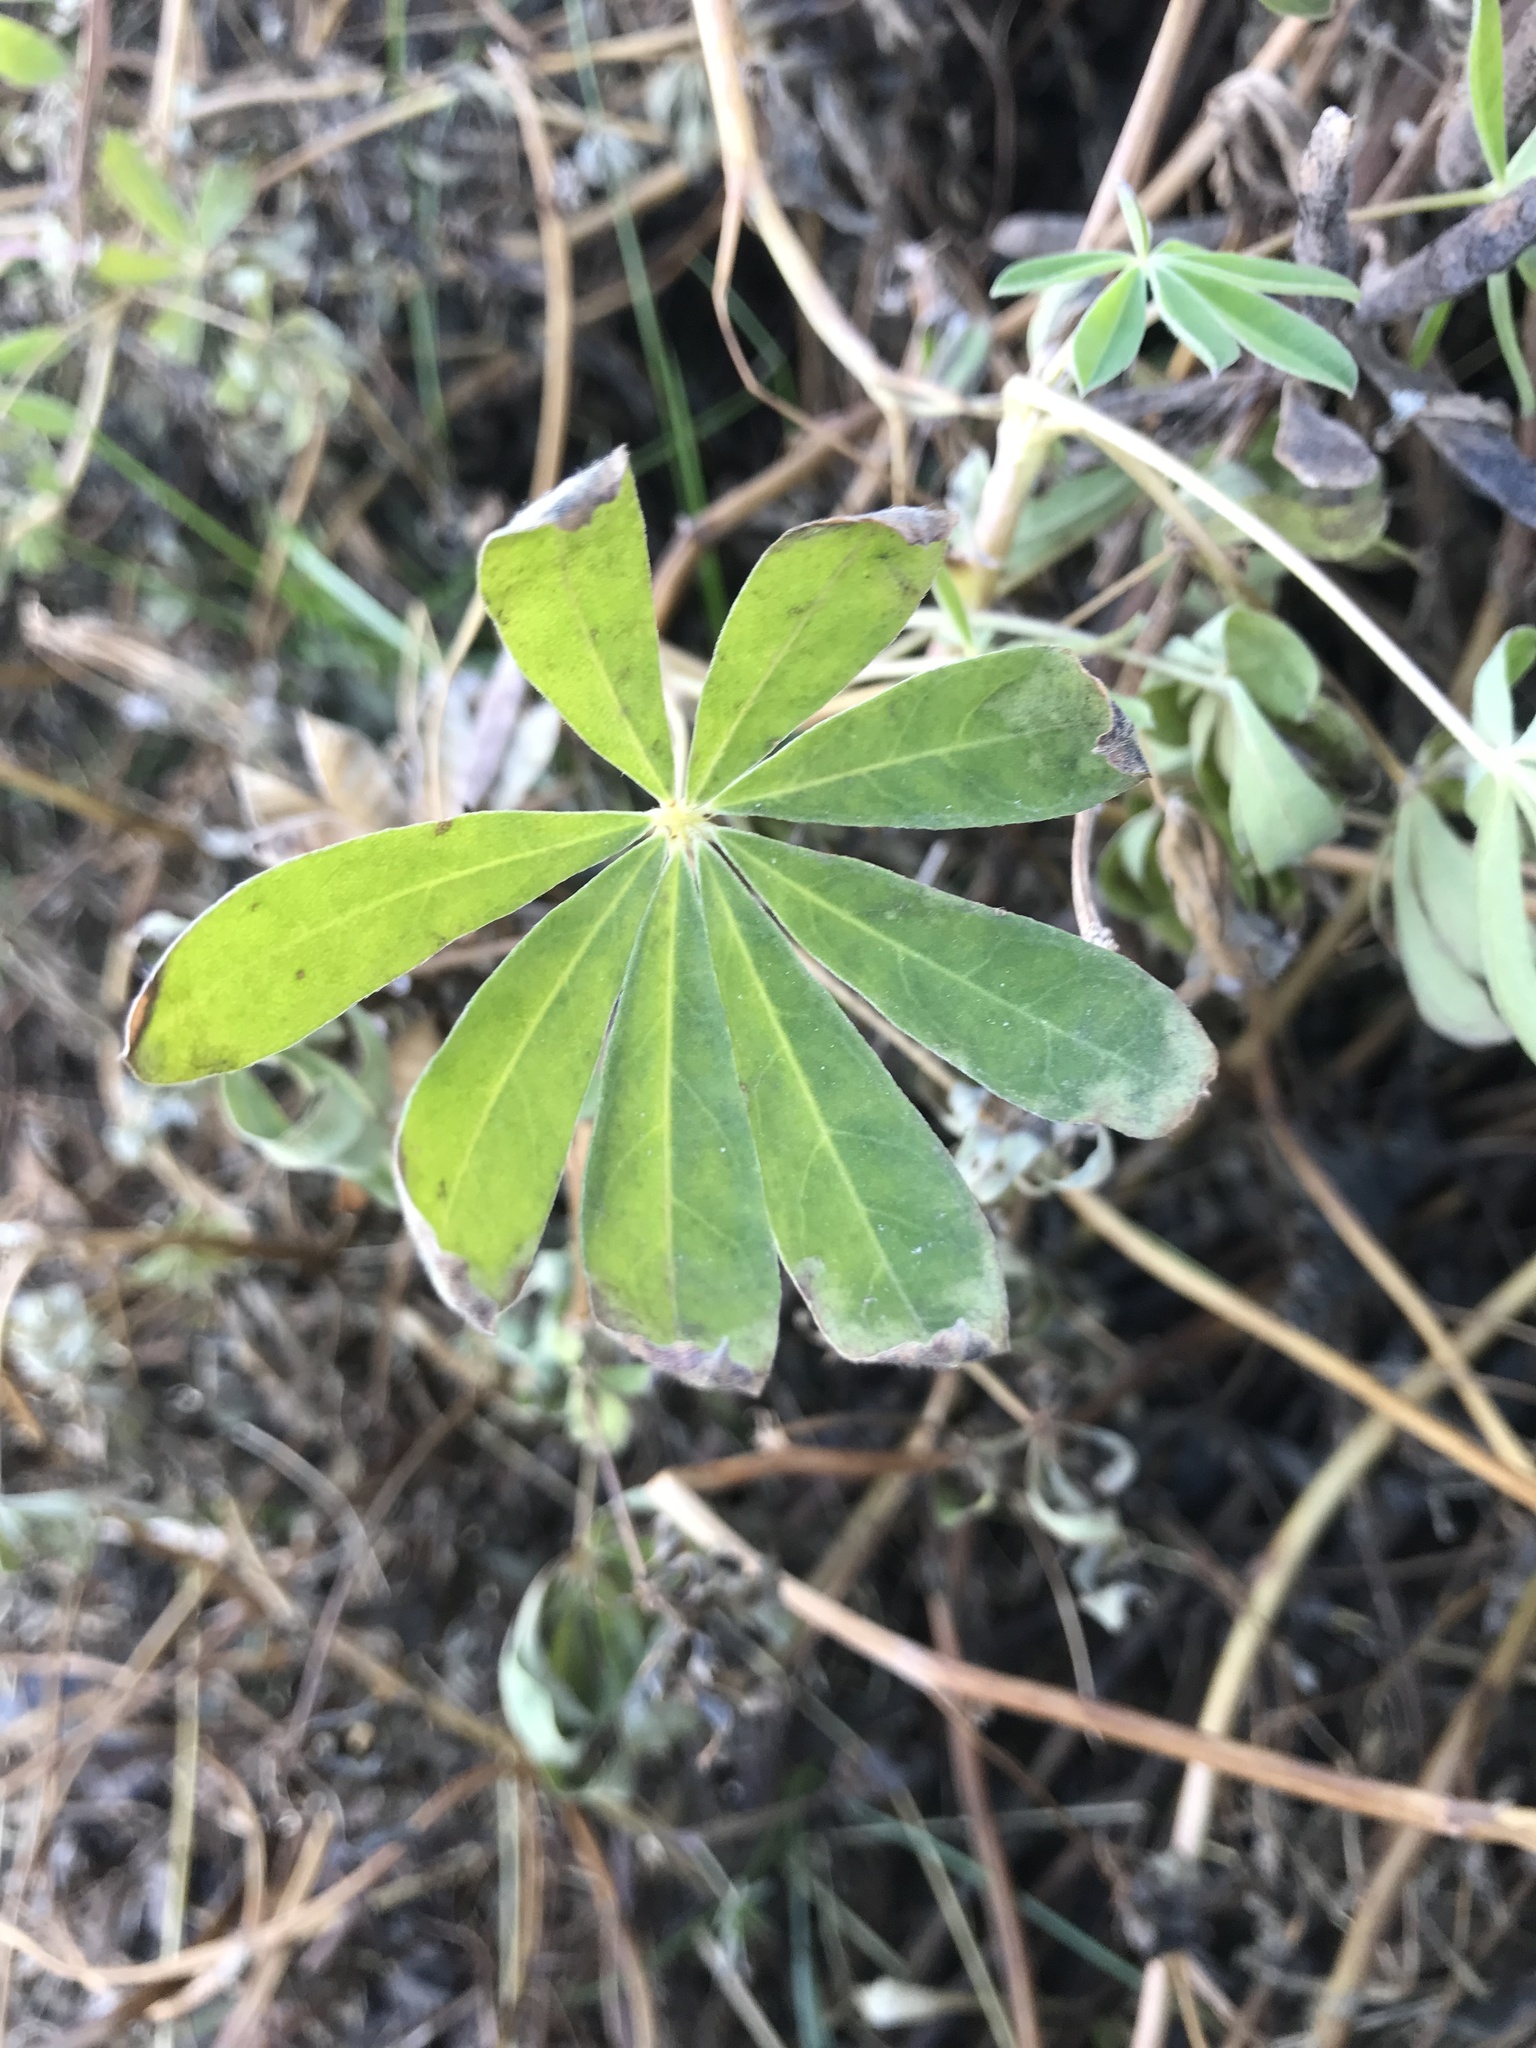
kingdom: Plantae
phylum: Tracheophyta
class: Magnoliopsida
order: Fabales
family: Fabaceae
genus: Lupinus
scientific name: Lupinus nootkatensis
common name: Nootka lupine
